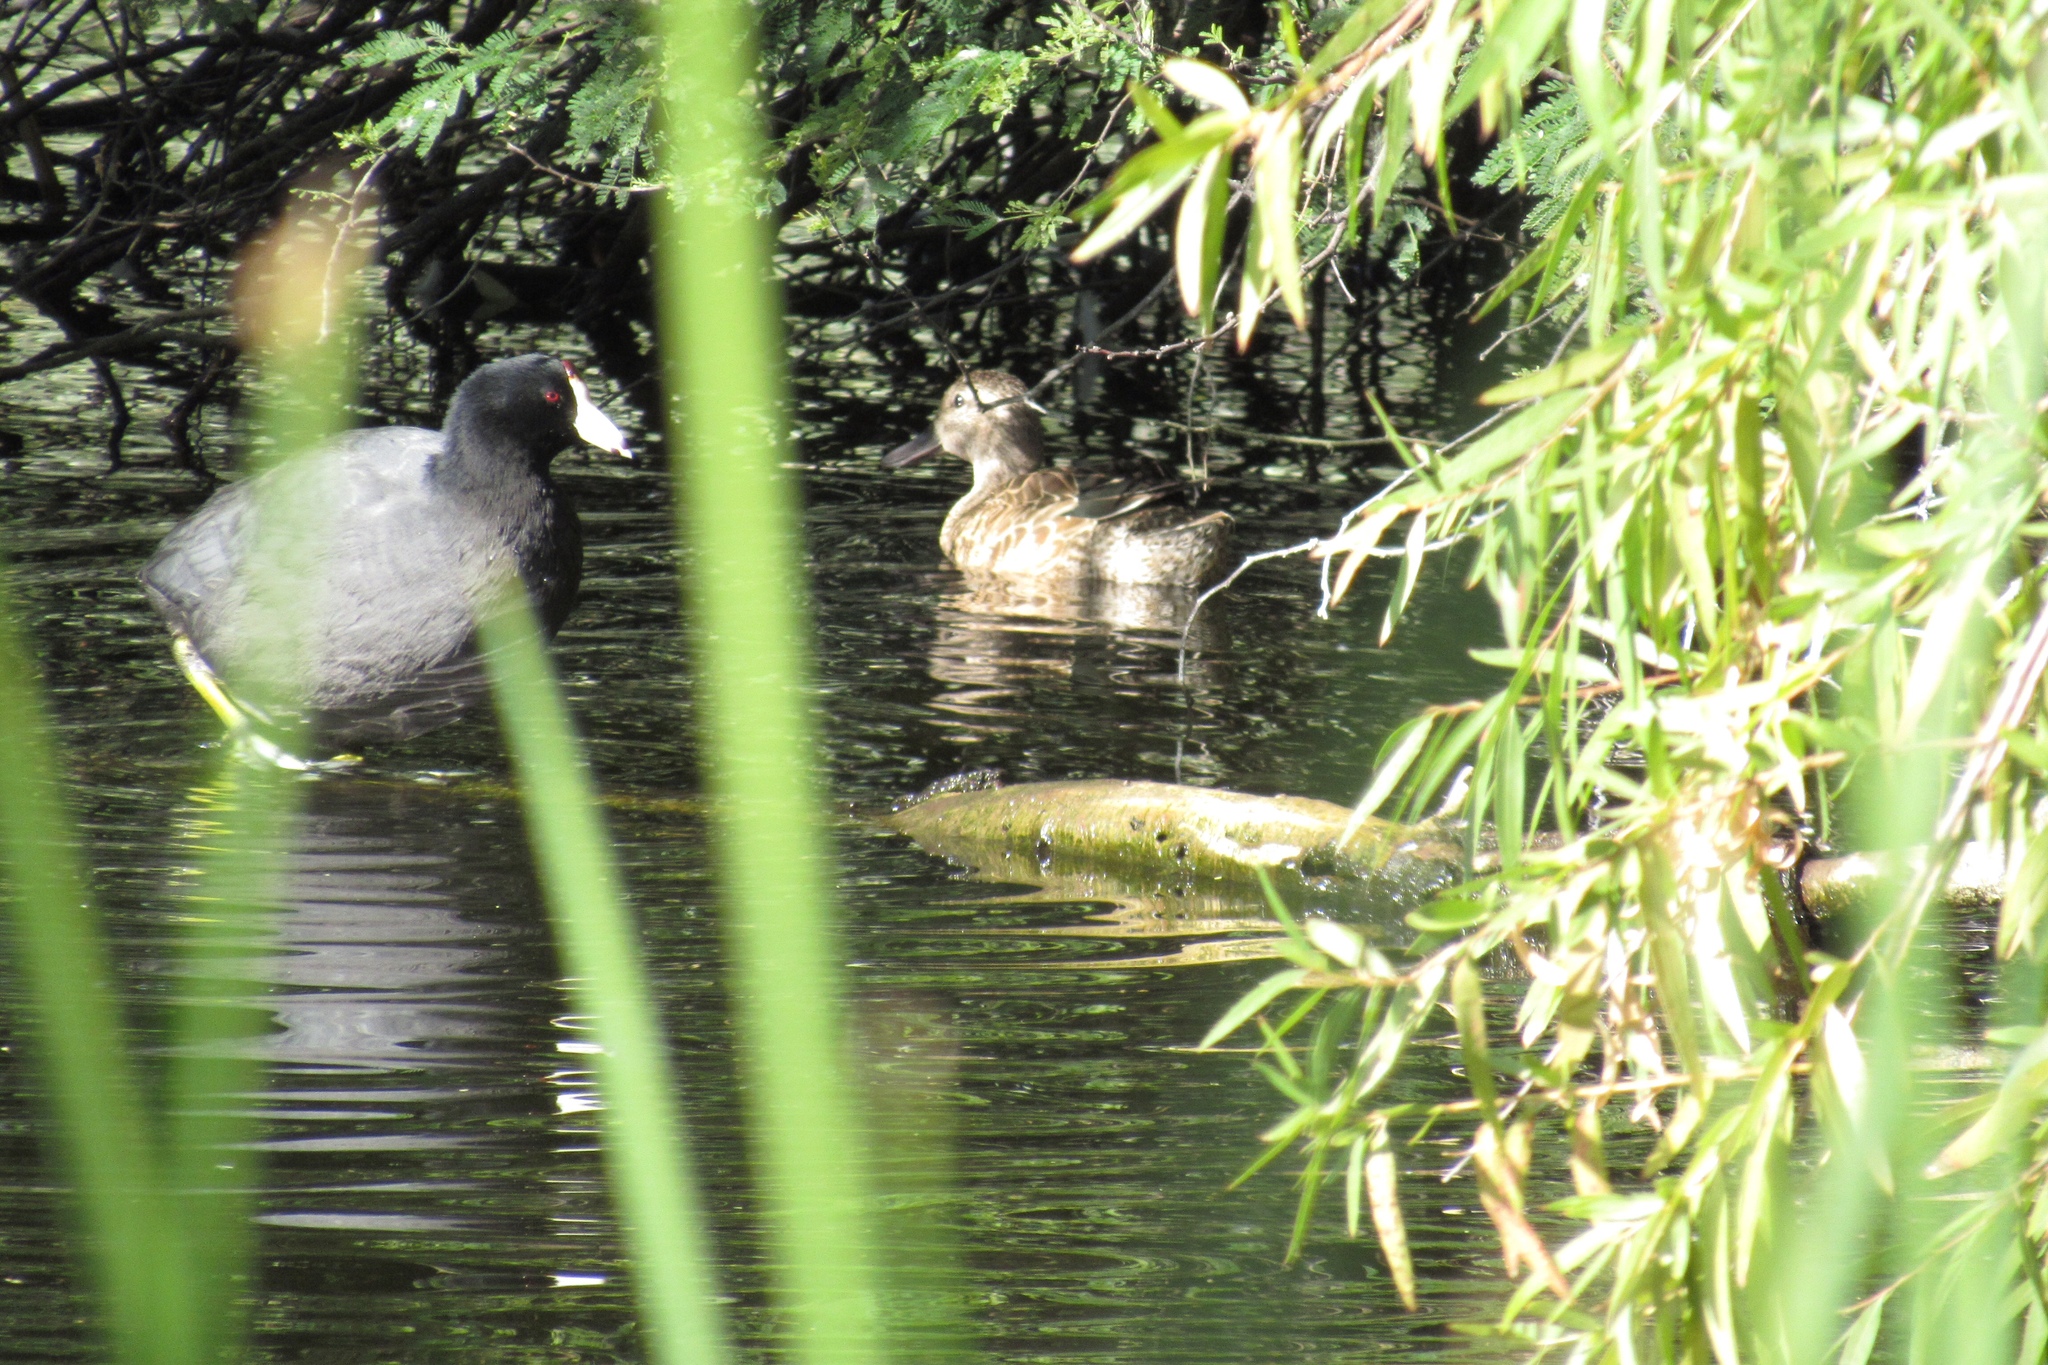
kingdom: Animalia
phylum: Chordata
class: Aves
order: Gruiformes
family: Rallidae
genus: Fulica
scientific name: Fulica americana
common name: American coot
